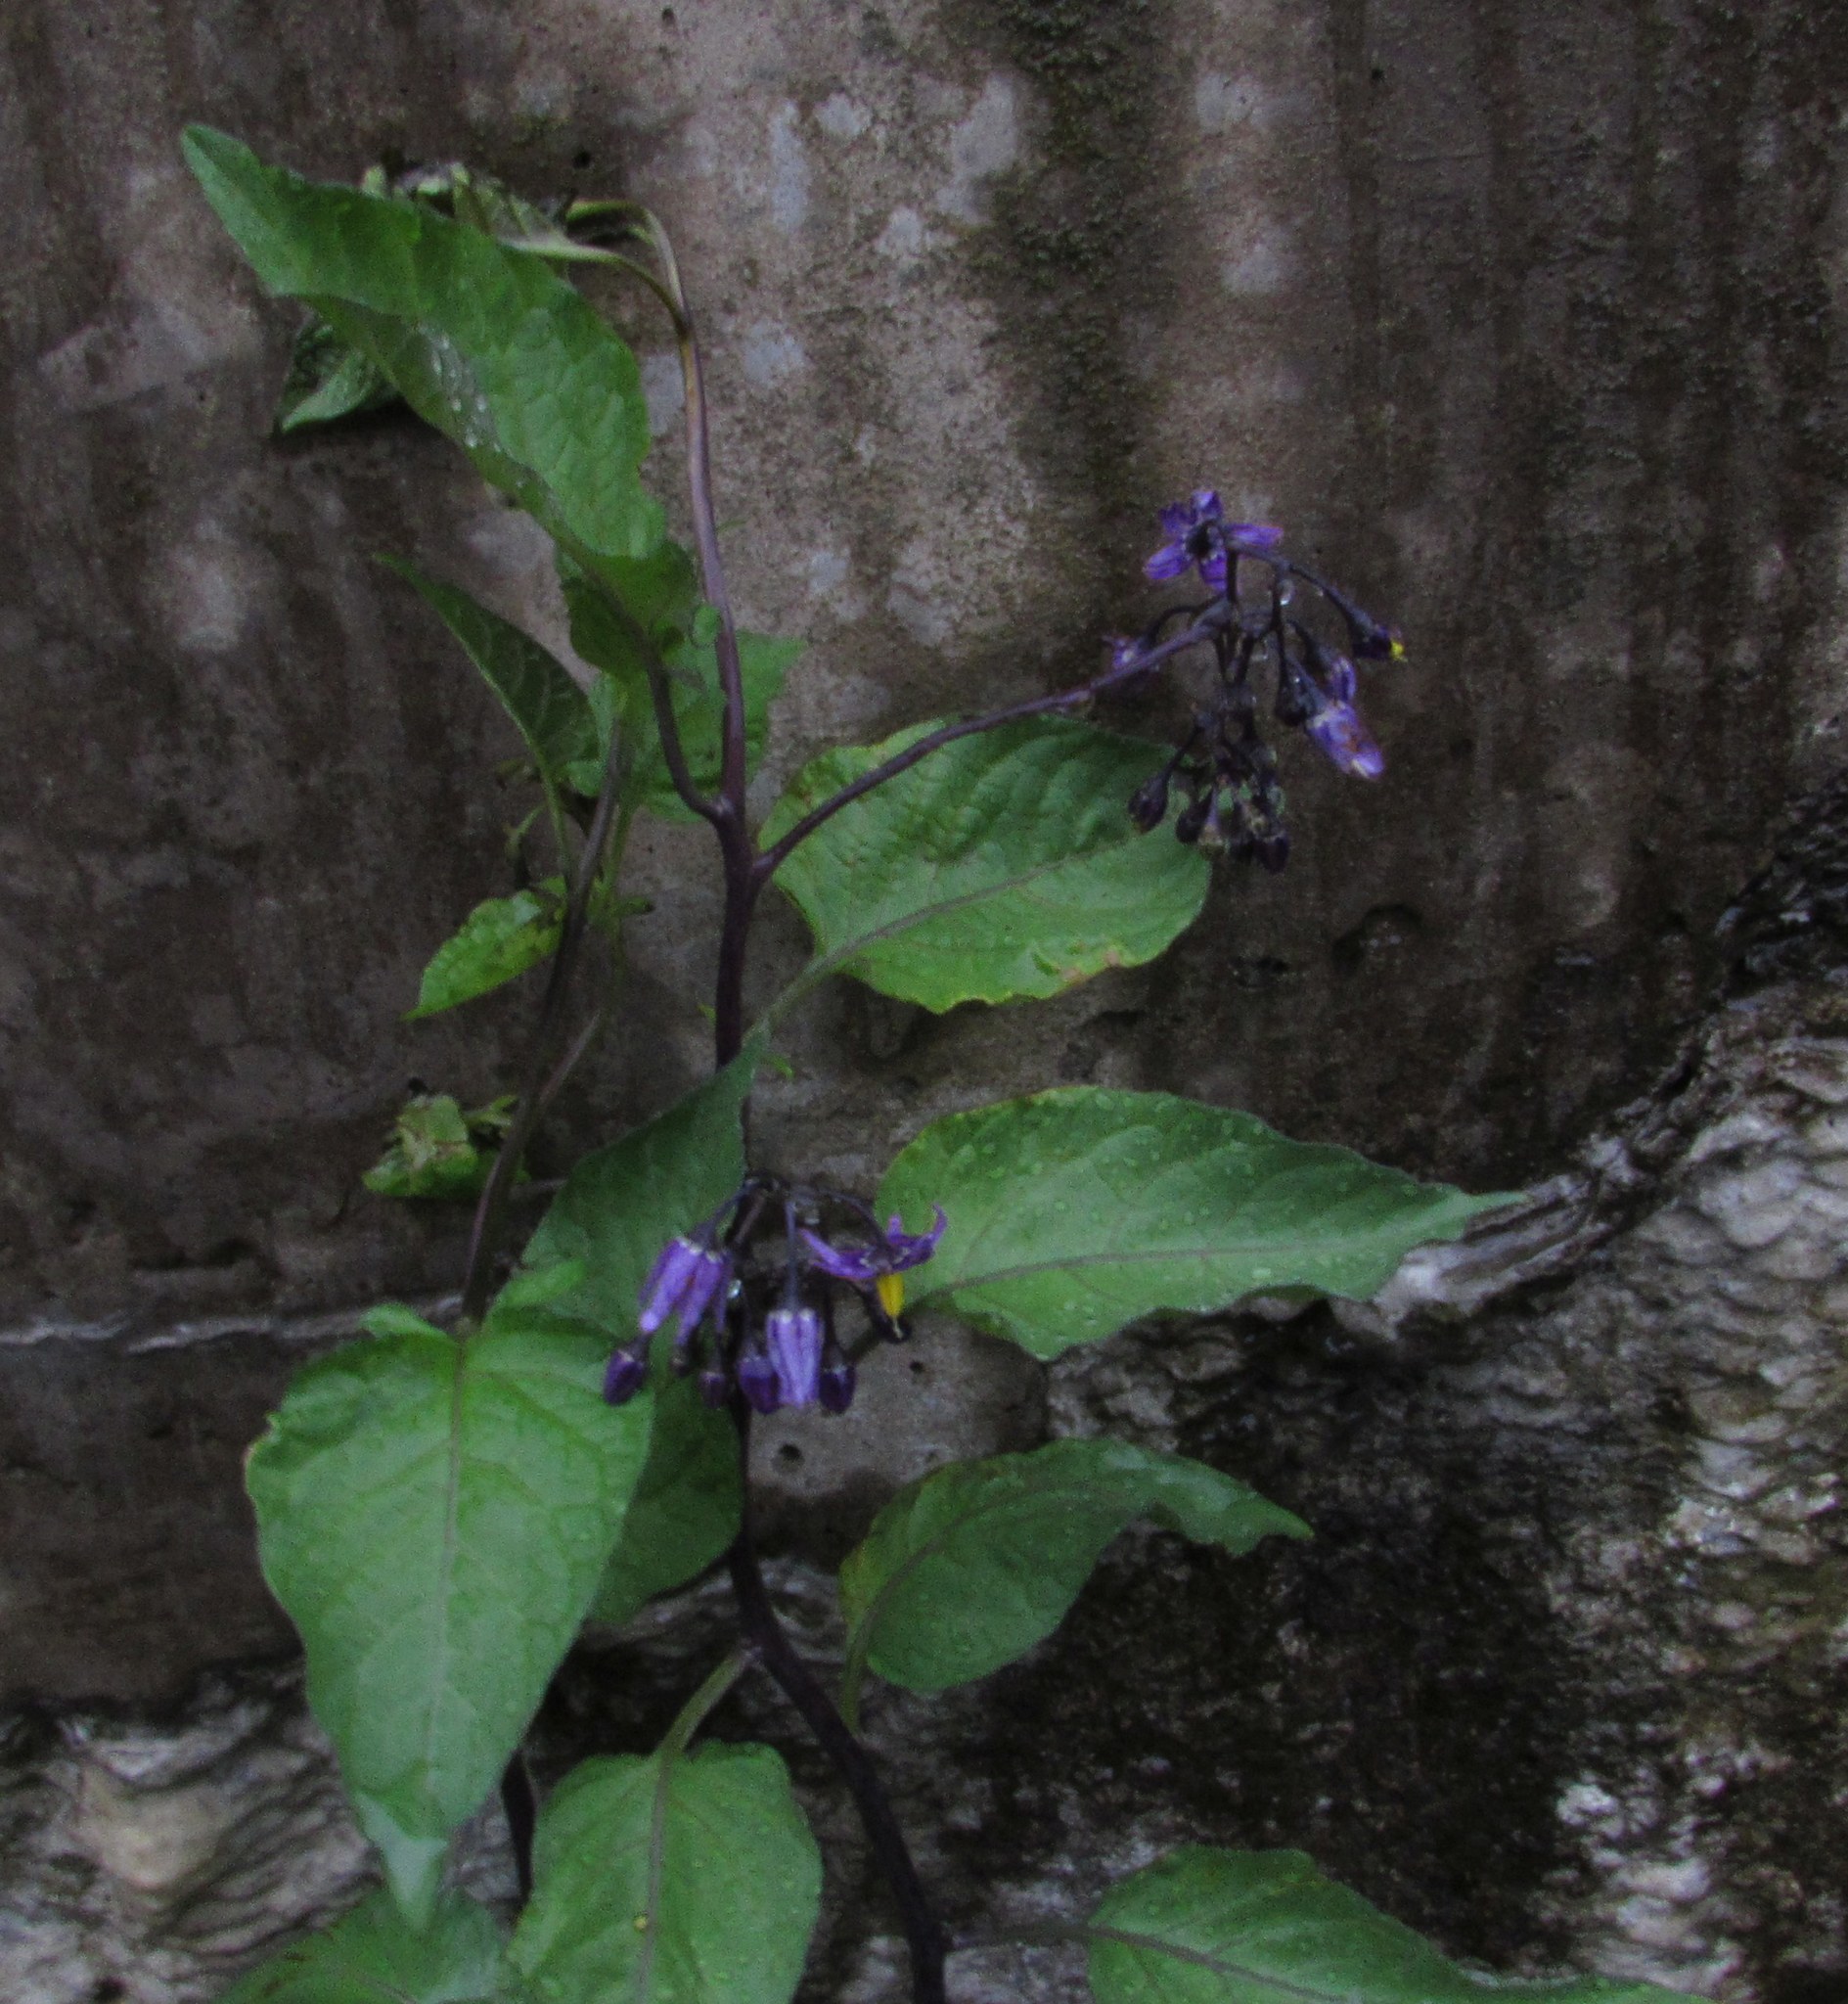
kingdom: Plantae
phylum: Tracheophyta
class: Magnoliopsida
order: Solanales
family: Solanaceae
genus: Solanum
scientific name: Solanum dulcamara
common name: Climbing nightshade
